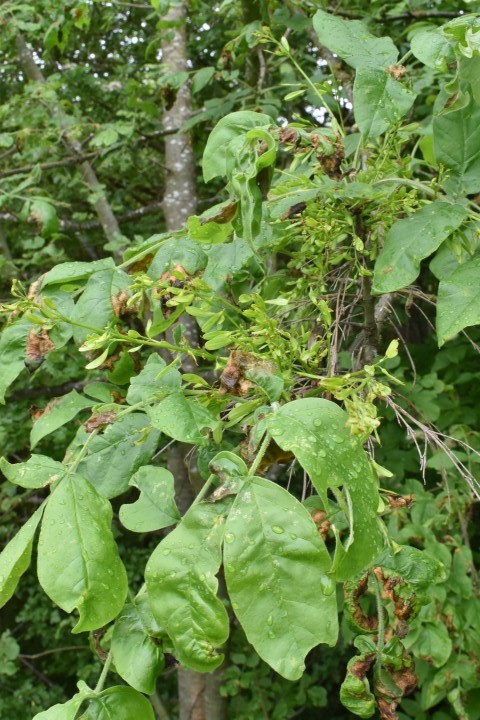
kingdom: Plantae
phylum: Tracheophyta
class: Magnoliopsida
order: Lamiales
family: Oleaceae
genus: Fraxinus
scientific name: Fraxinus latifolia
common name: Oregon ash
